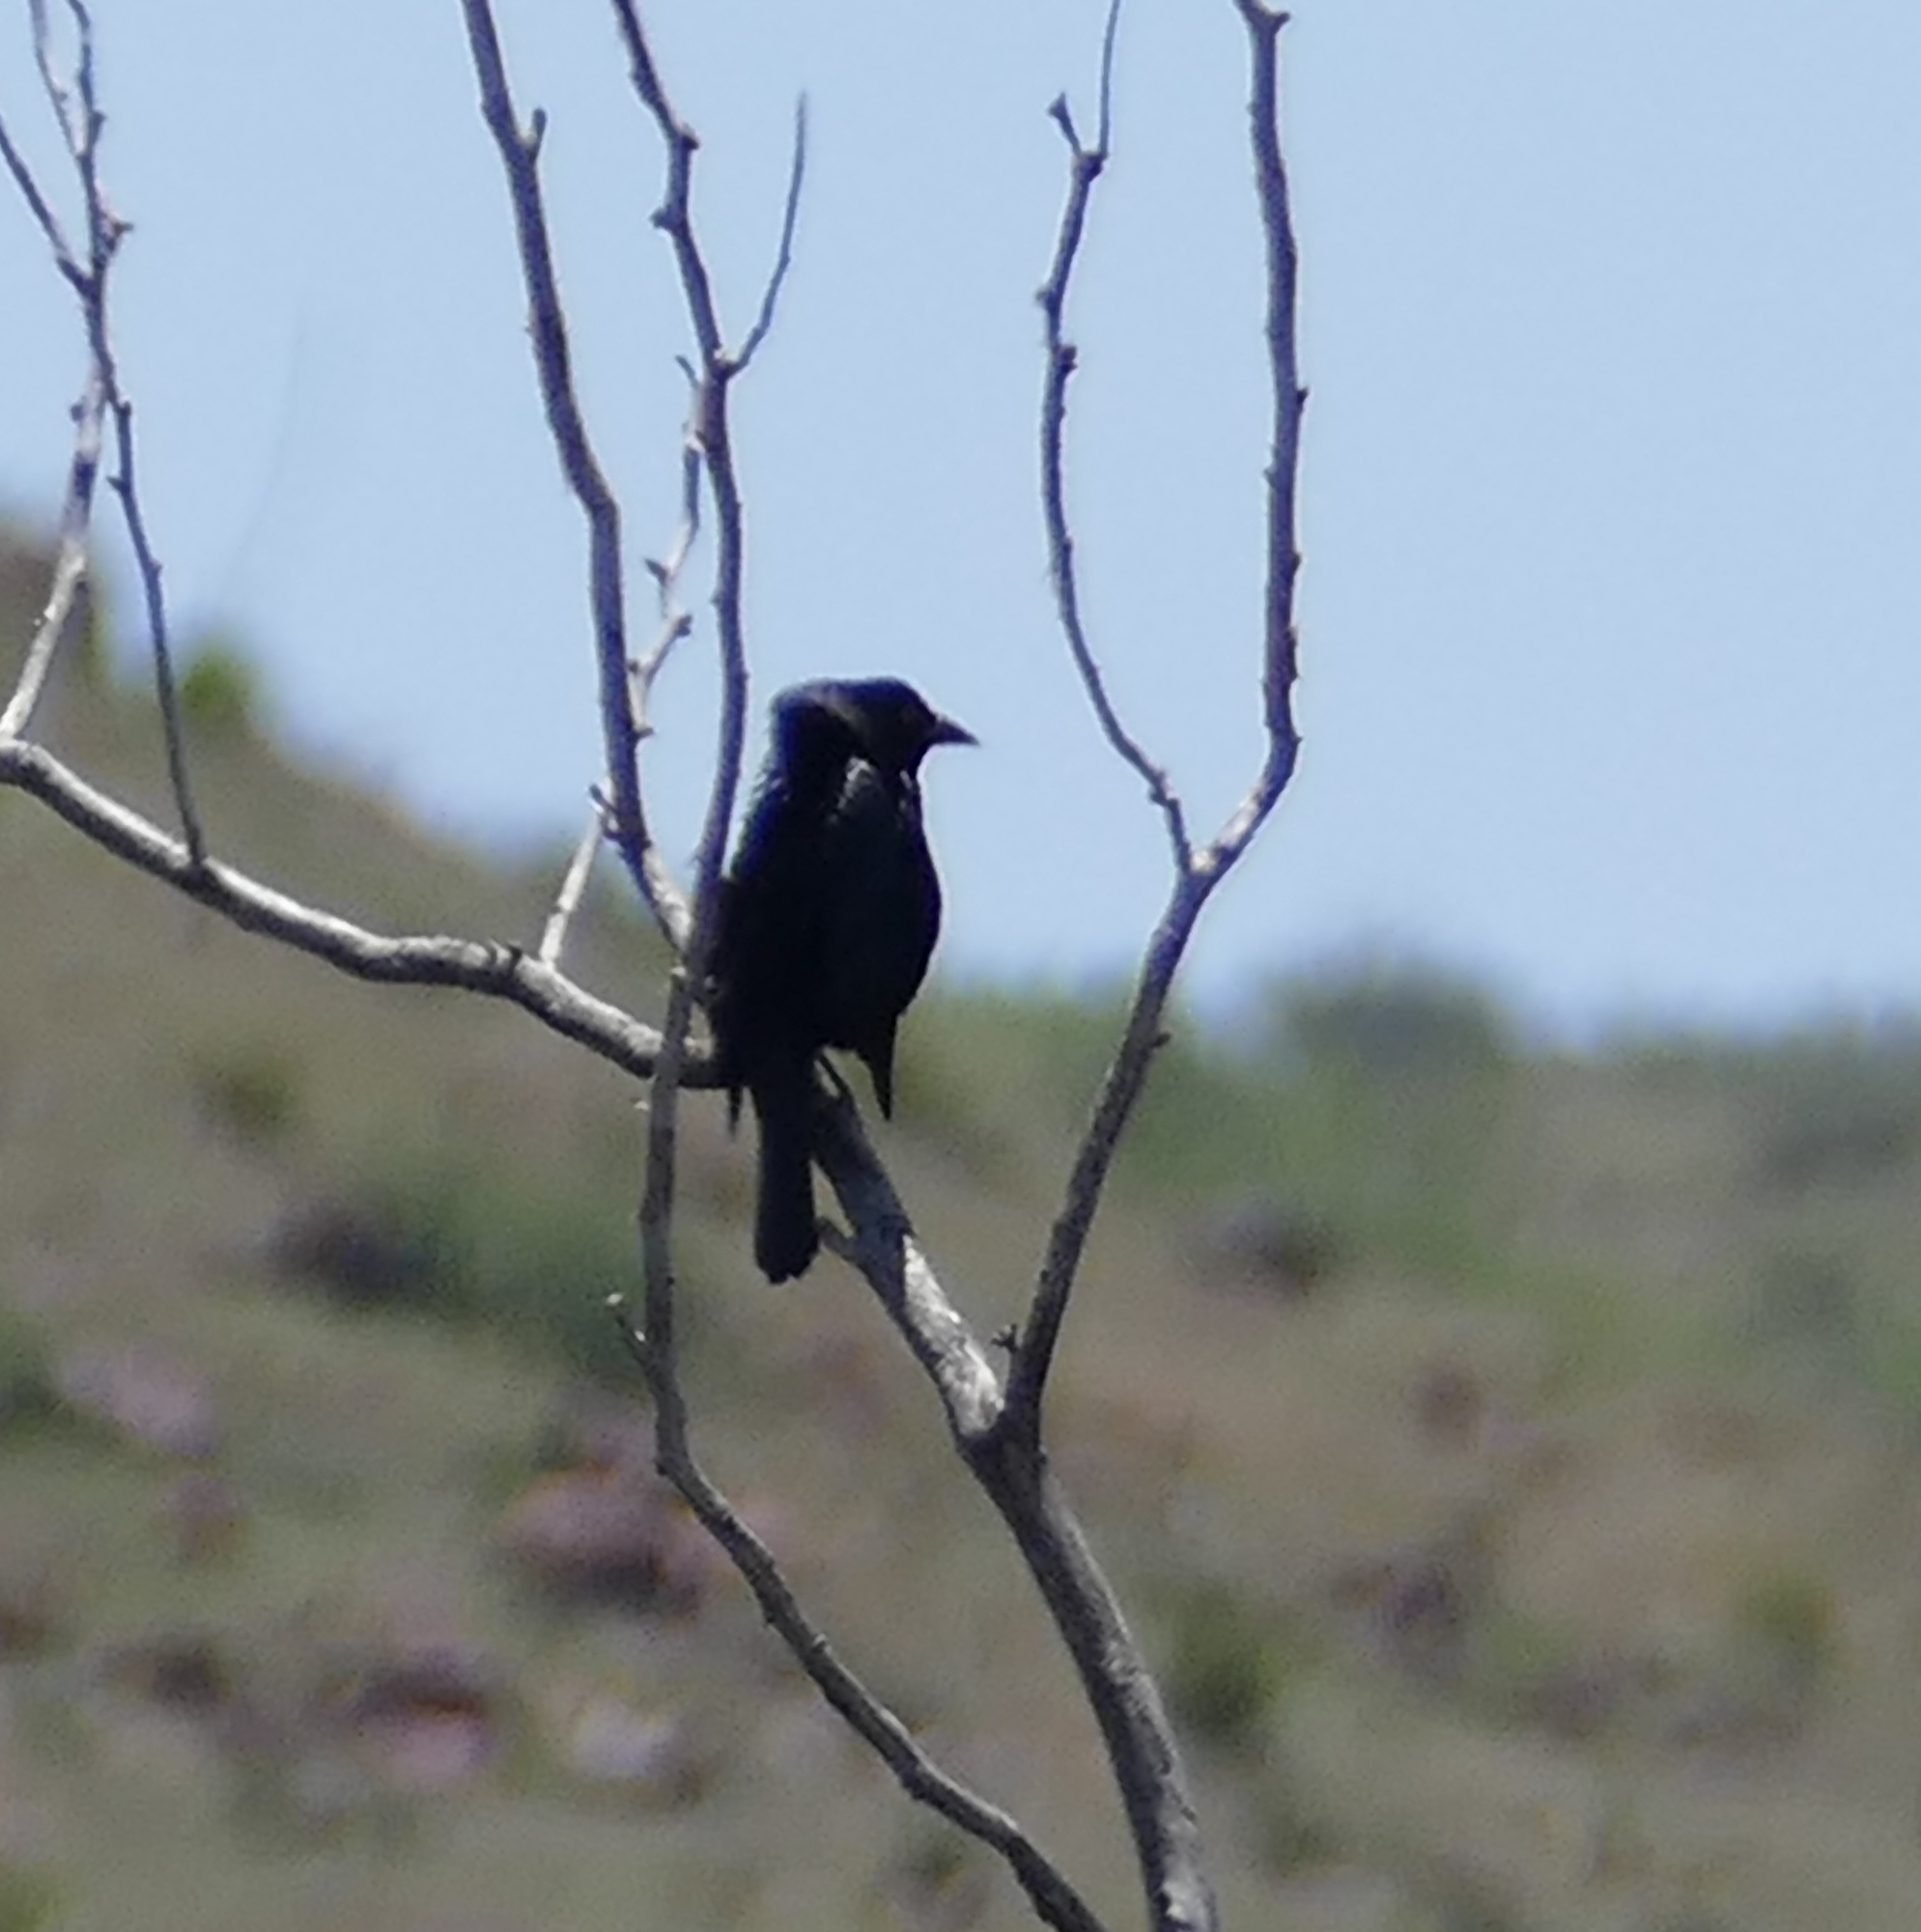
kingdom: Animalia
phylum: Chordata
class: Aves
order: Passeriformes
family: Icteridae
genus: Molothrus
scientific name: Molothrus aeneus
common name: Bronzed cowbird
